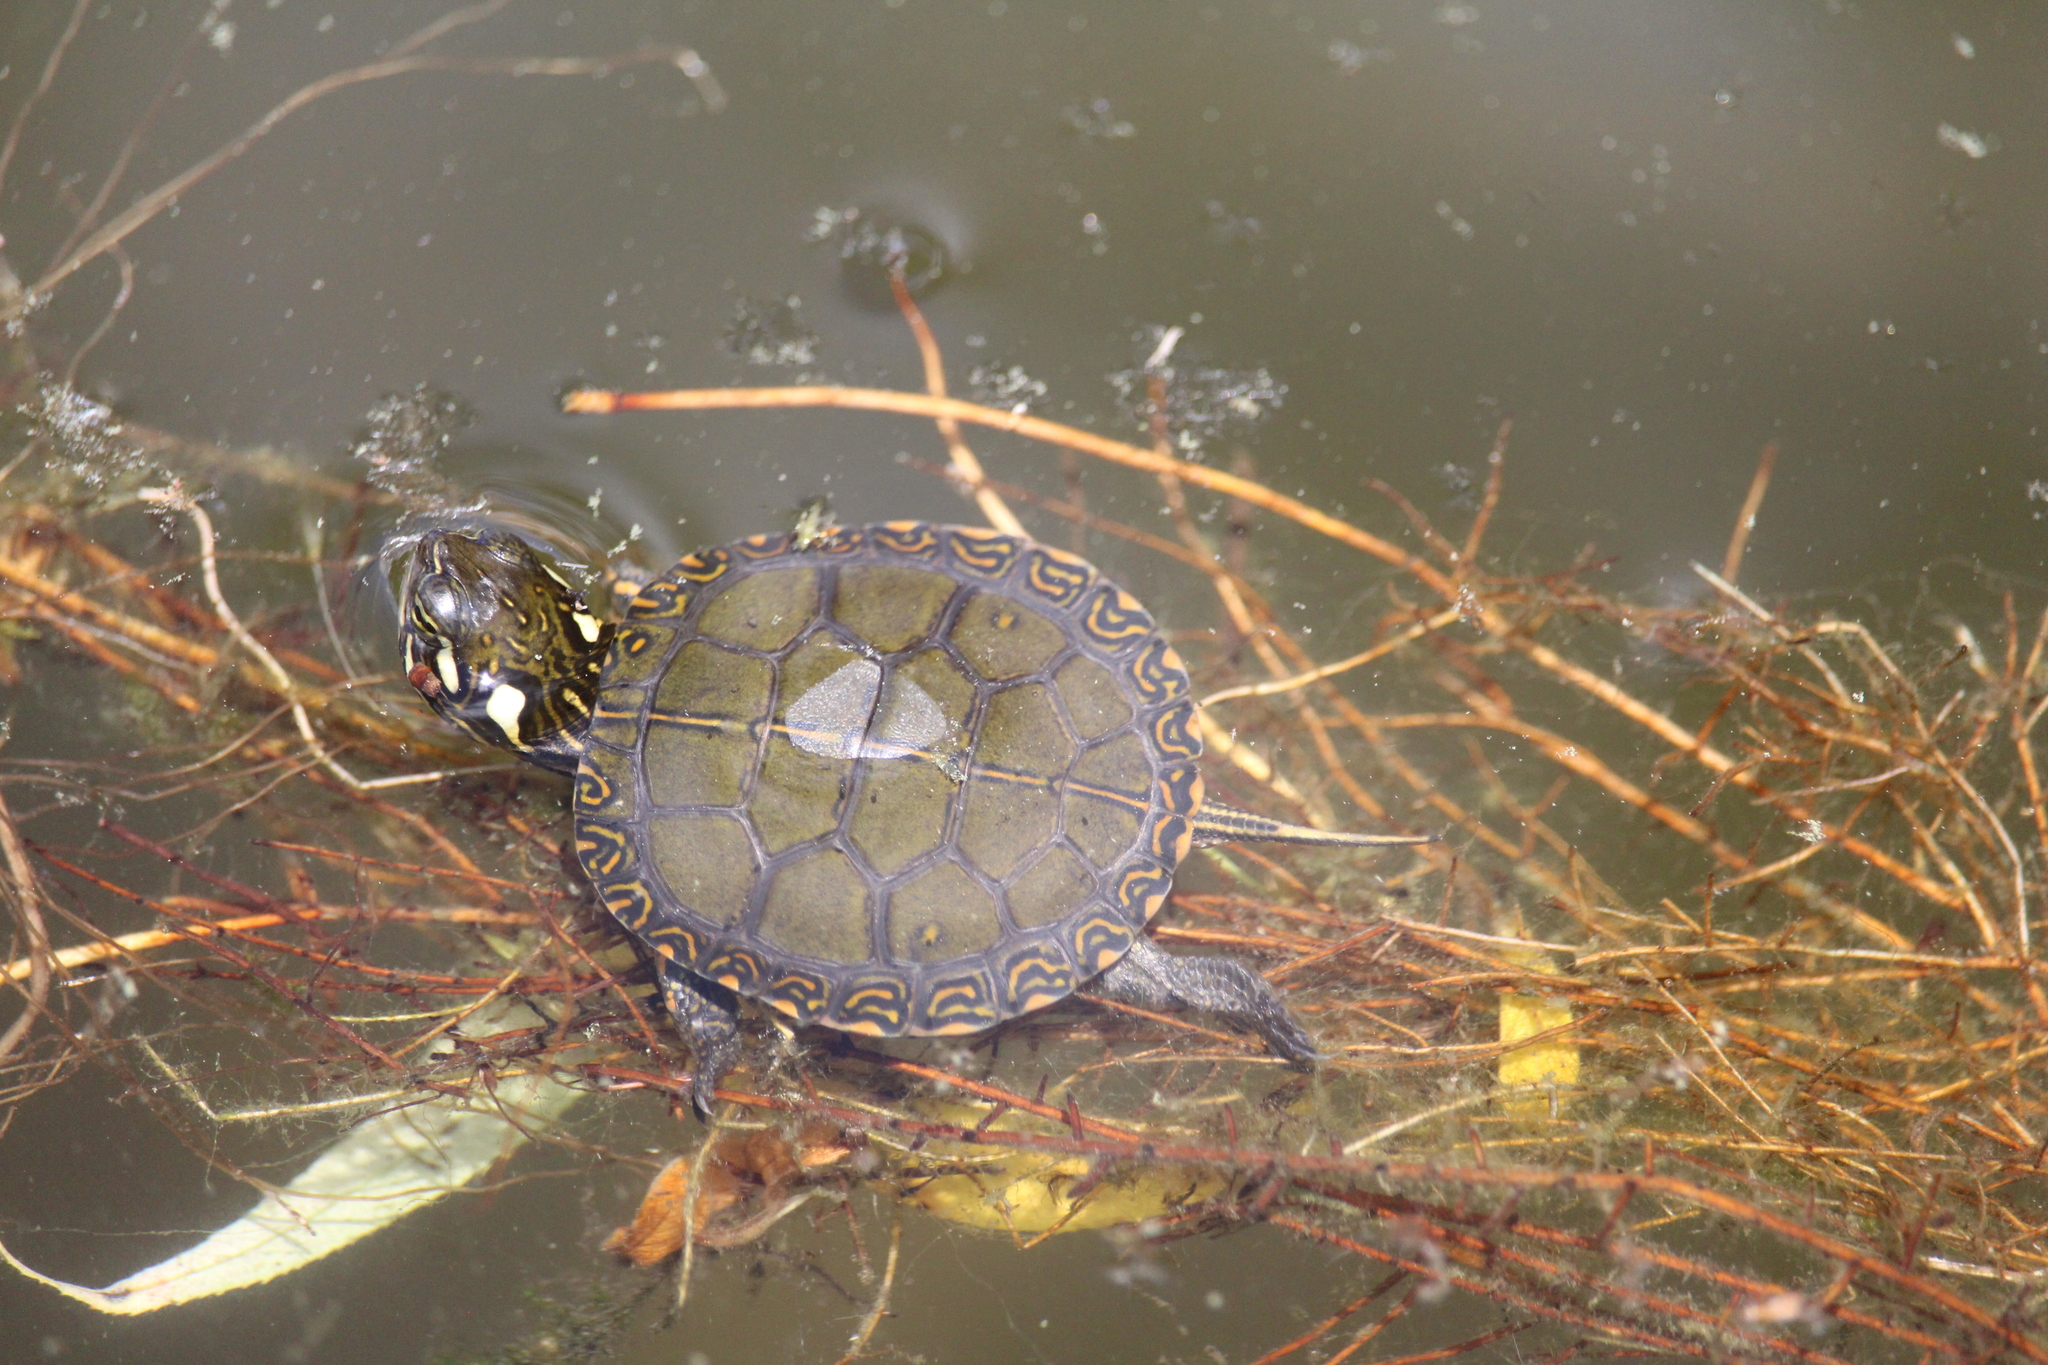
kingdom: Animalia
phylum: Chordata
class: Testudines
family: Emydidae
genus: Chrysemys
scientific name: Chrysemys picta
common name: Painted turtle
